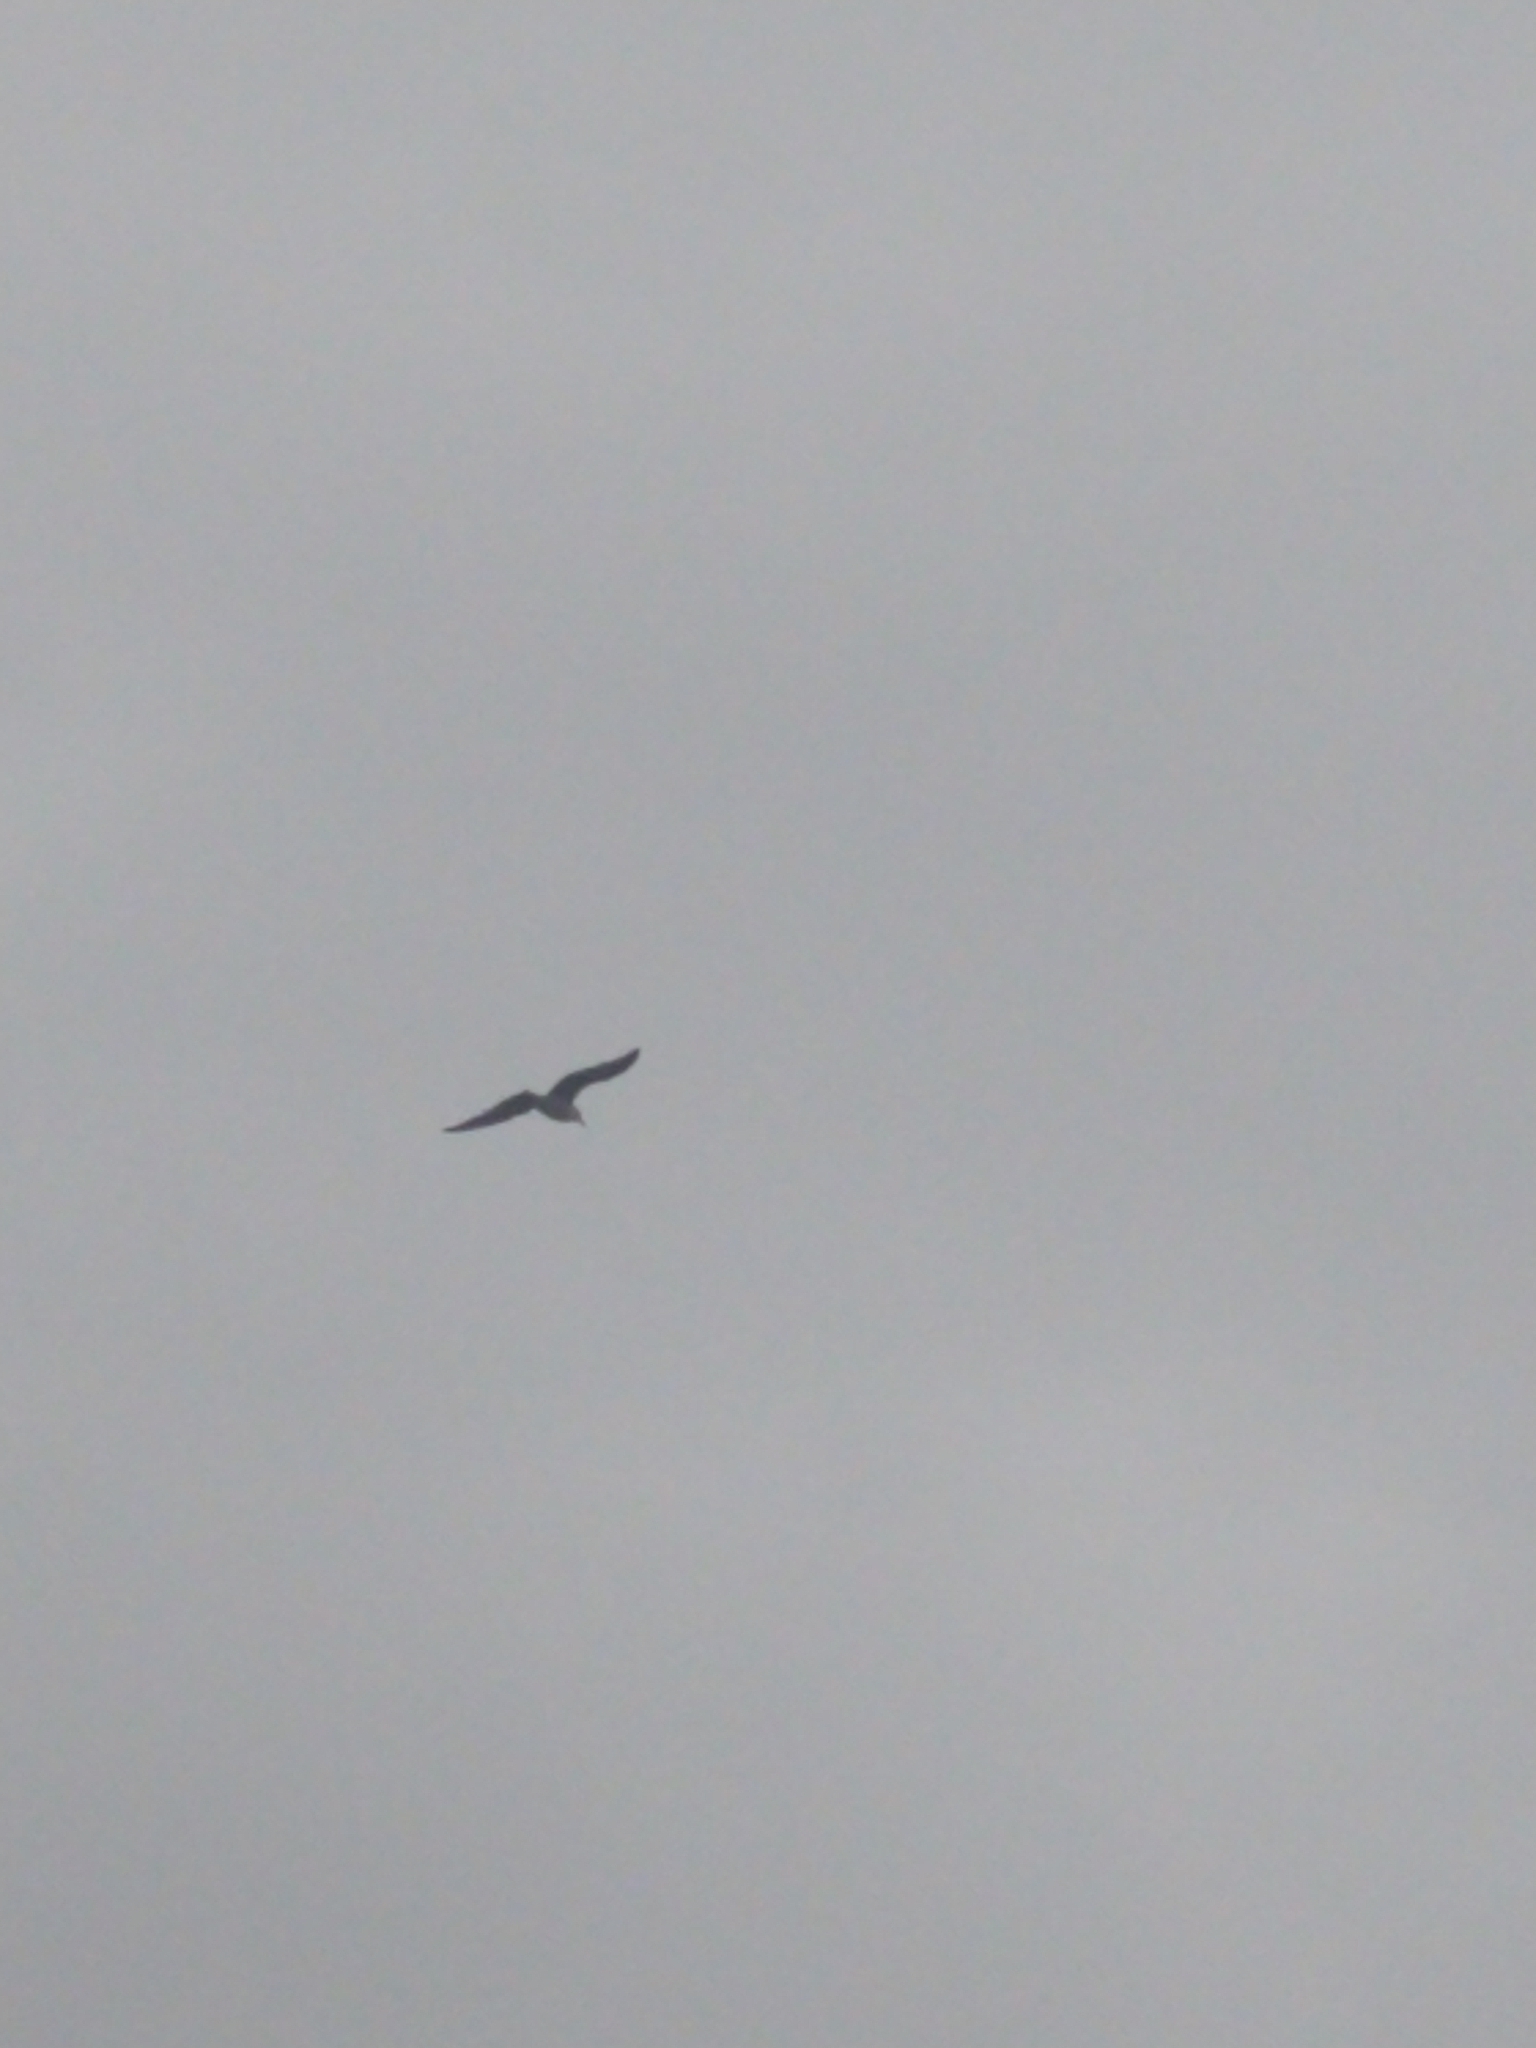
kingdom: Animalia
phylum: Chordata
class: Aves
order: Charadriiformes
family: Laridae
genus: Larus
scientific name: Larus dominicanus
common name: Kelp gull
